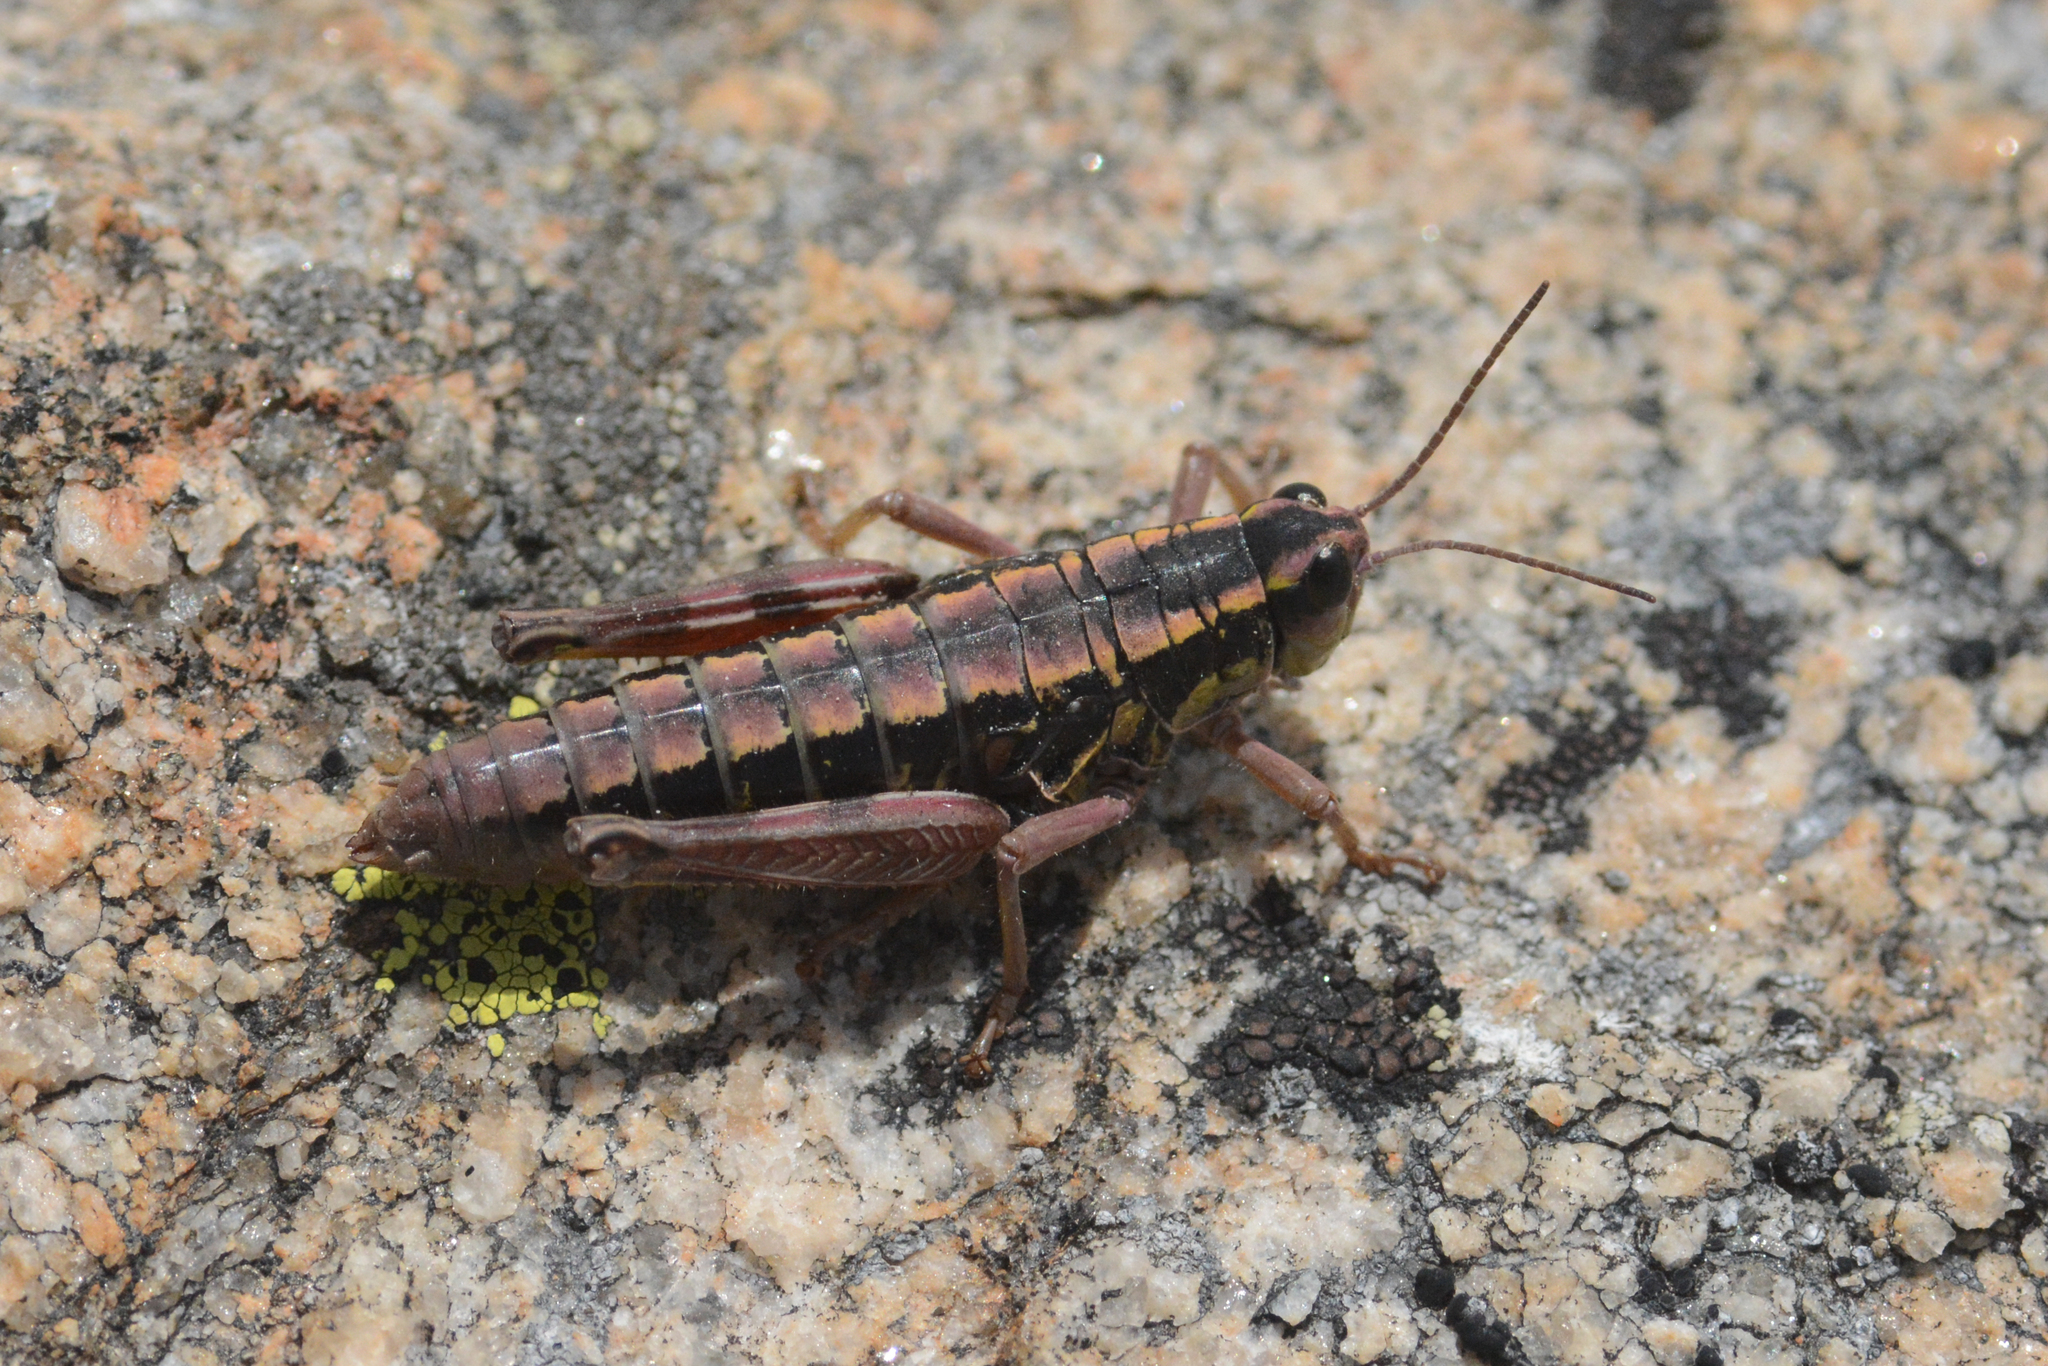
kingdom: Animalia
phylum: Arthropoda
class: Insecta
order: Orthoptera
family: Acrididae
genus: Buckellacris
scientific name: Buckellacris hispida
